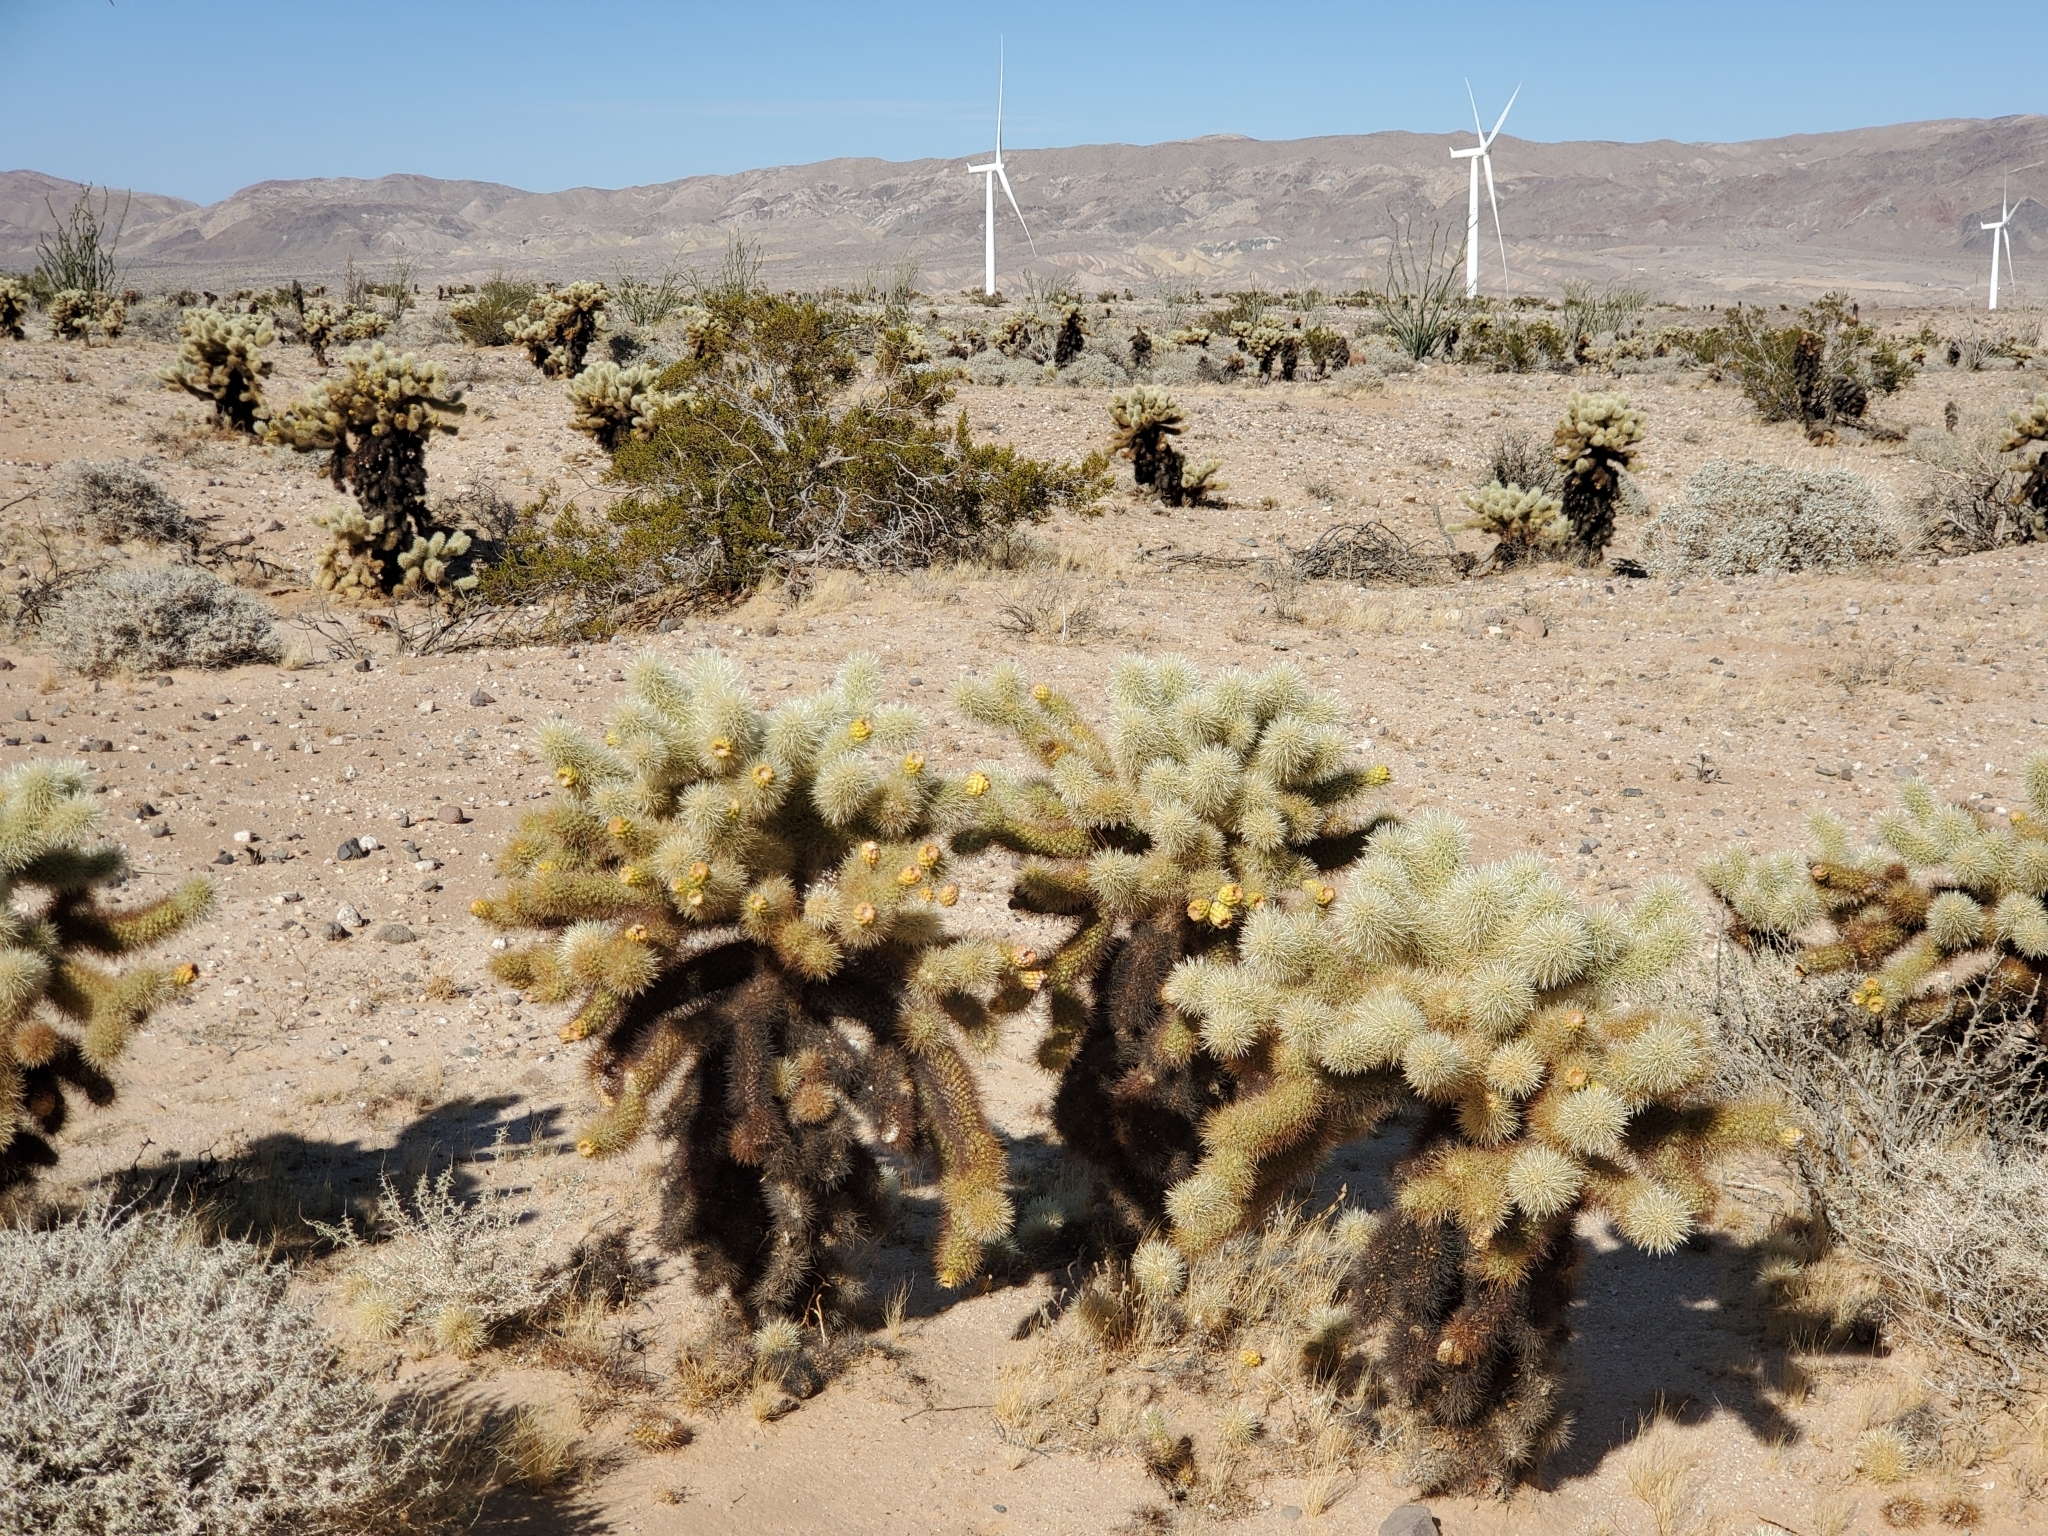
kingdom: Plantae
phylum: Tracheophyta
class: Magnoliopsida
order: Caryophyllales
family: Cactaceae
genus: Cylindropuntia
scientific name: Cylindropuntia fosbergii
